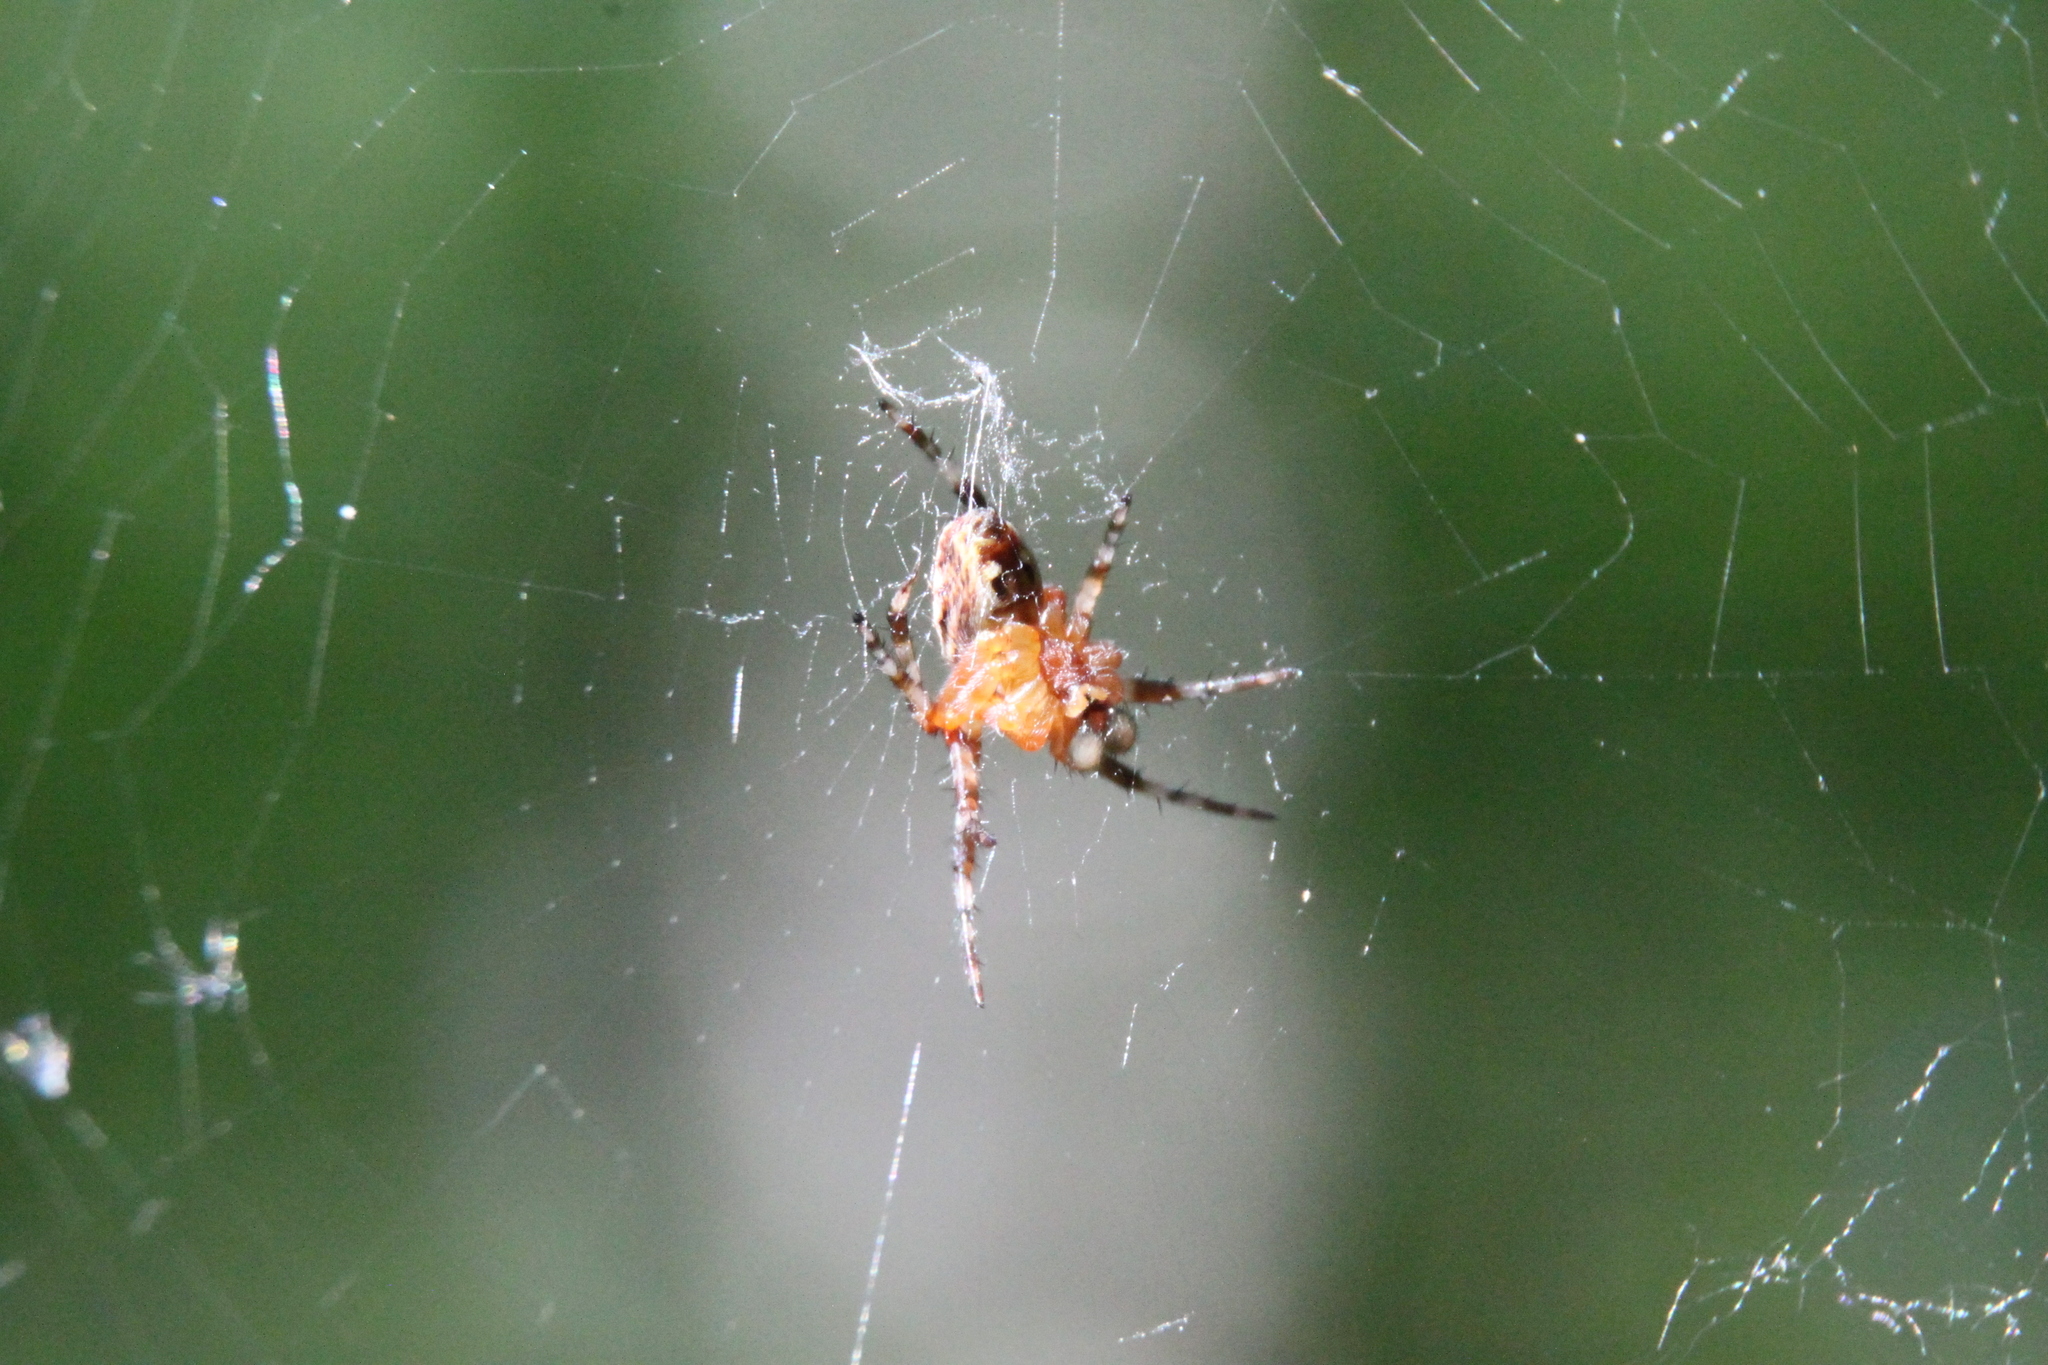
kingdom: Animalia
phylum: Arthropoda
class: Arachnida
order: Araneae
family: Araneidae
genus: Araneus
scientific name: Araneus diadematus
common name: Cross orbweaver
